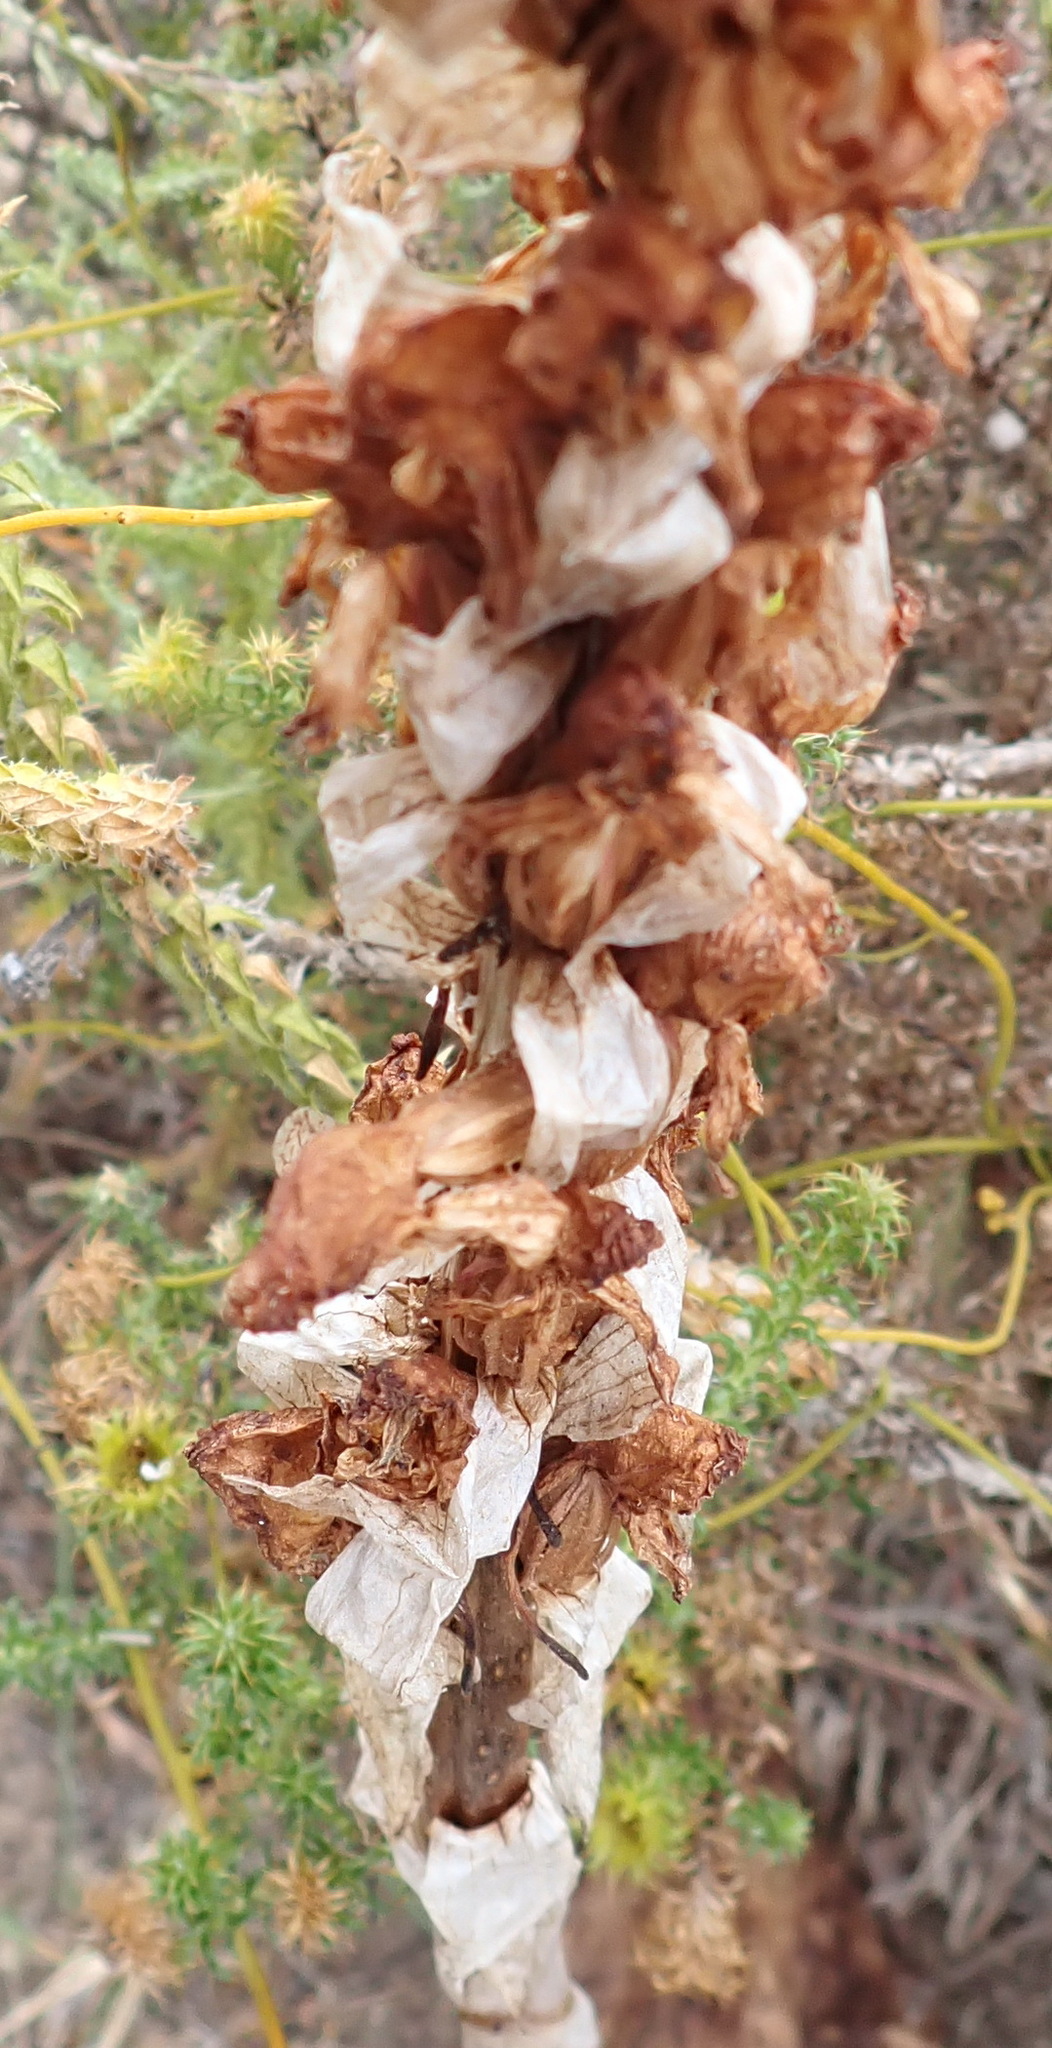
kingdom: Plantae
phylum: Tracheophyta
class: Liliopsida
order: Asparagales
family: Orchidaceae
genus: Satyrium
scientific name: Satyrium princeps
